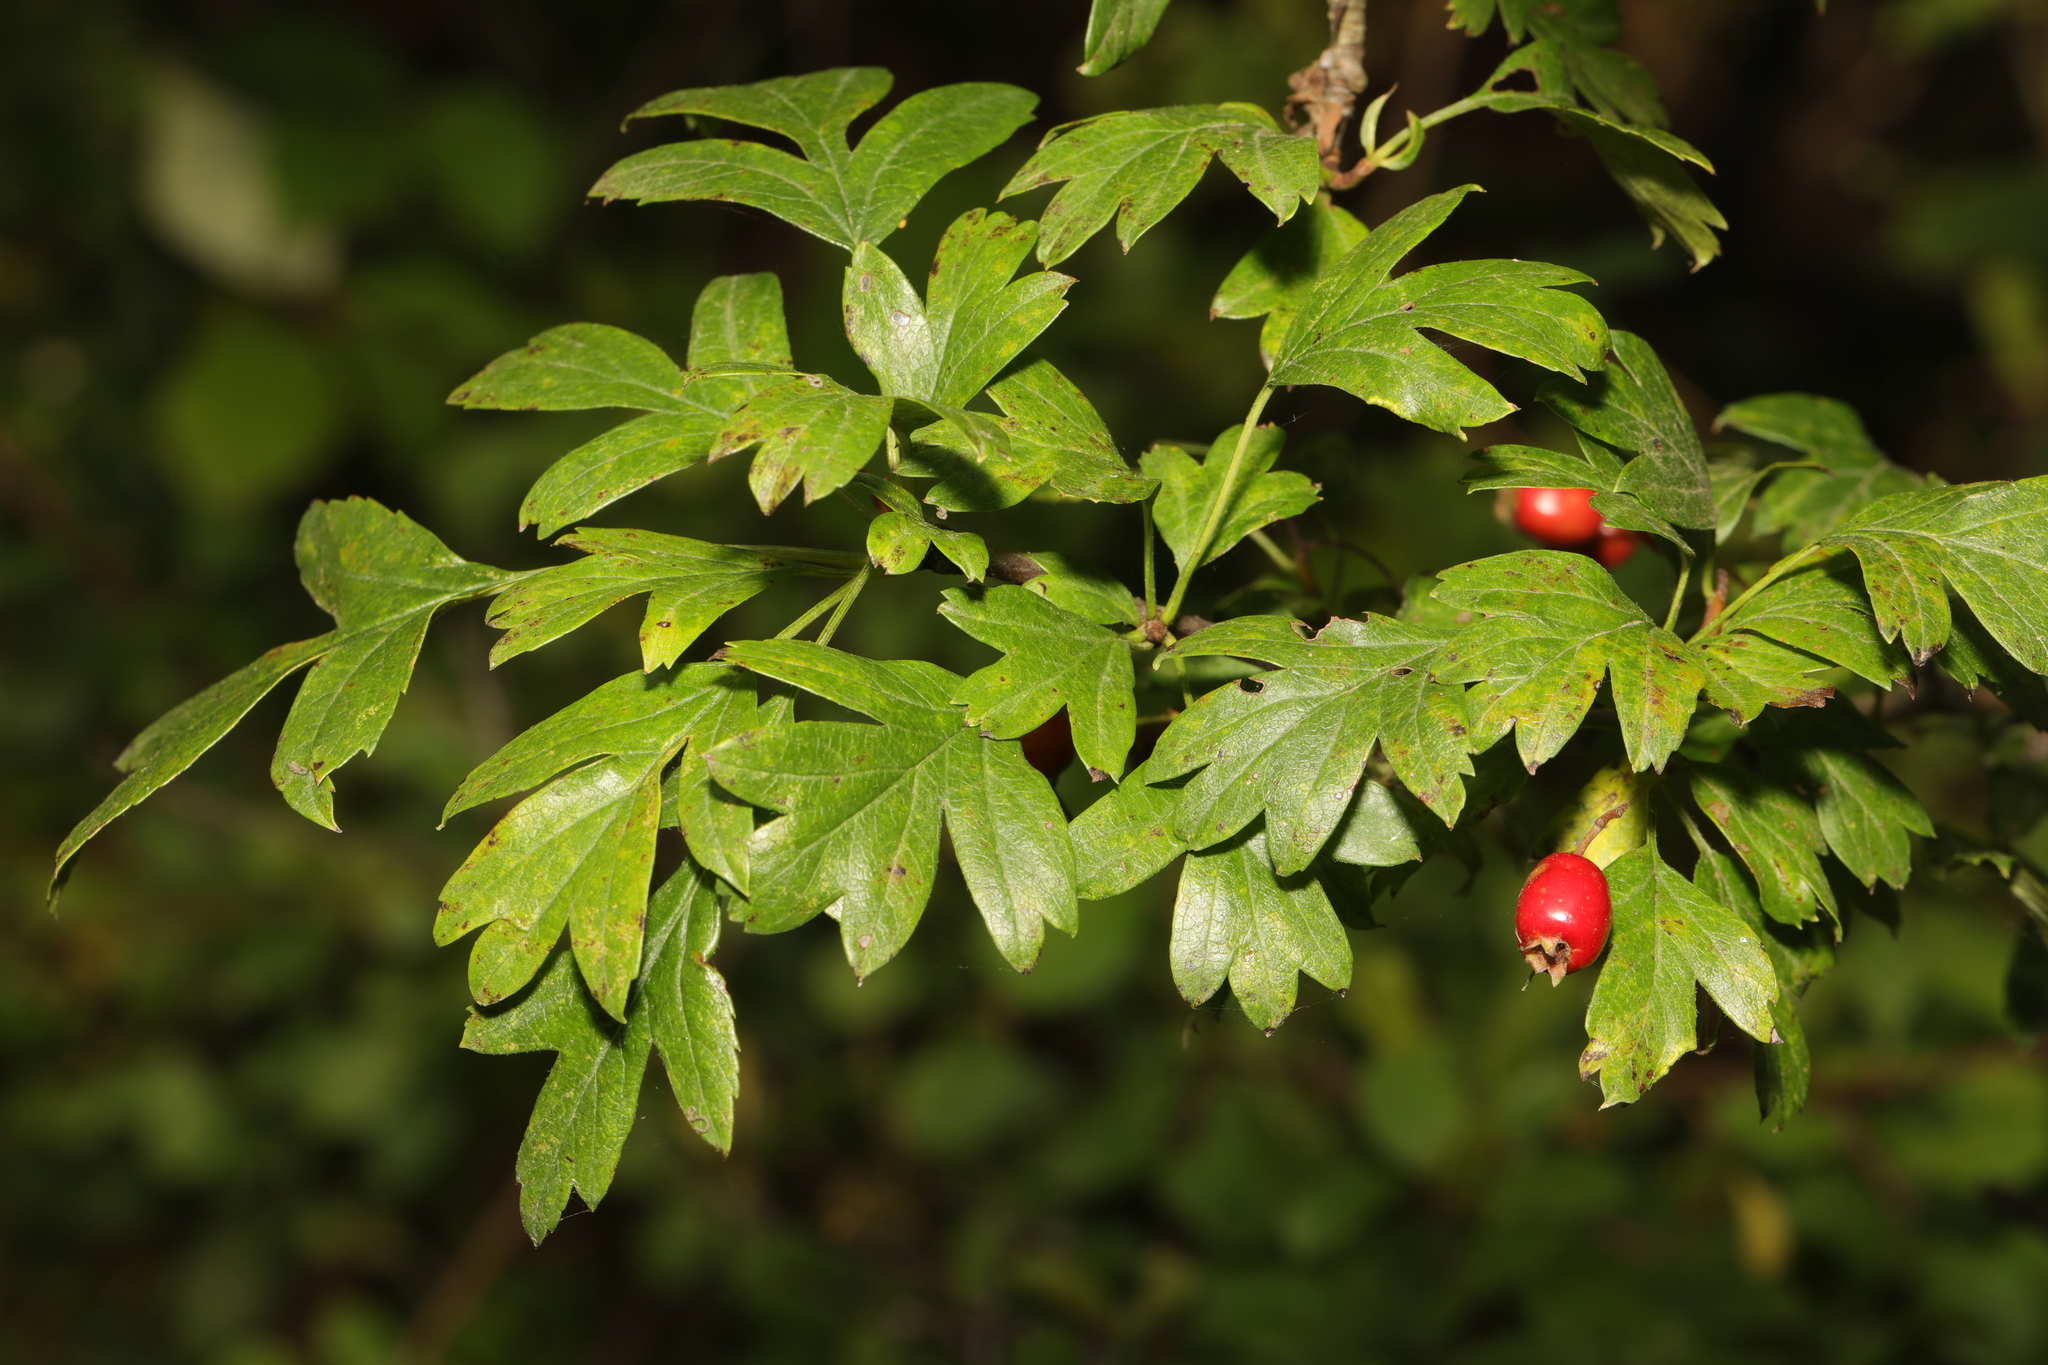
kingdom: Plantae
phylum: Tracheophyta
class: Magnoliopsida
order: Rosales
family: Rosaceae
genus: Crataegus
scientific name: Crataegus monogyna
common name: Hawthorn
